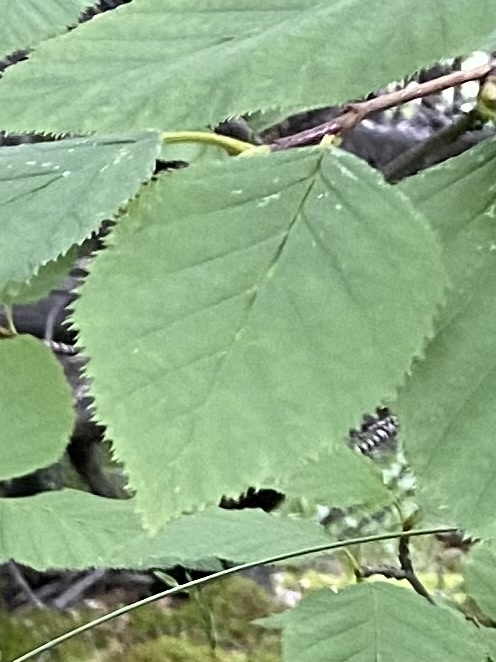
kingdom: Plantae
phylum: Tracheophyta
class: Magnoliopsida
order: Fagales
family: Betulaceae
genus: Alnus
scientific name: Alnus alnobetula
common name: Green alder
